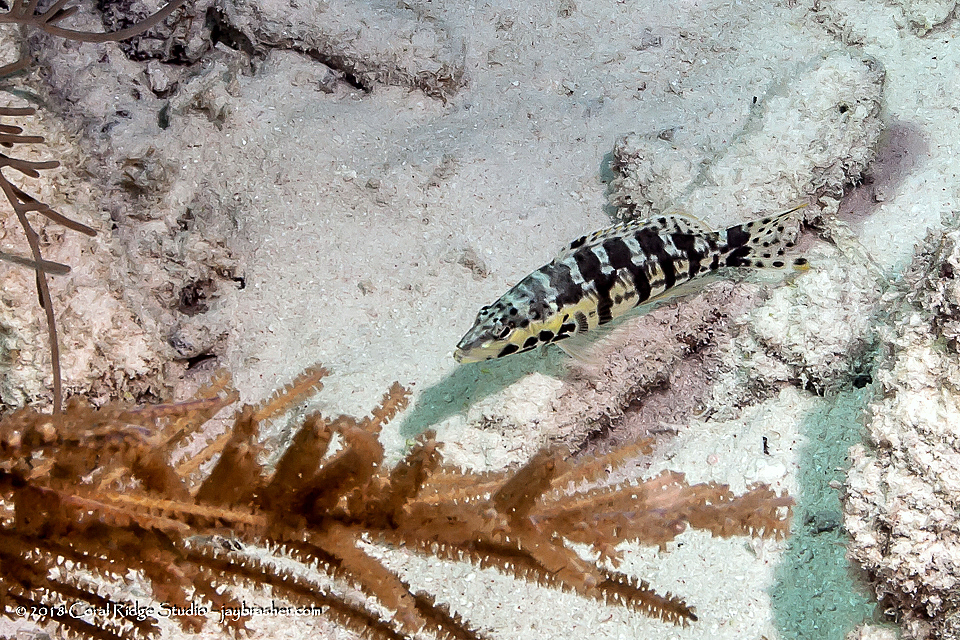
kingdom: Animalia
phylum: Chordata
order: Perciformes
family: Serranidae
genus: Serranus
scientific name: Serranus tigrinus
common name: Harlequin bass
